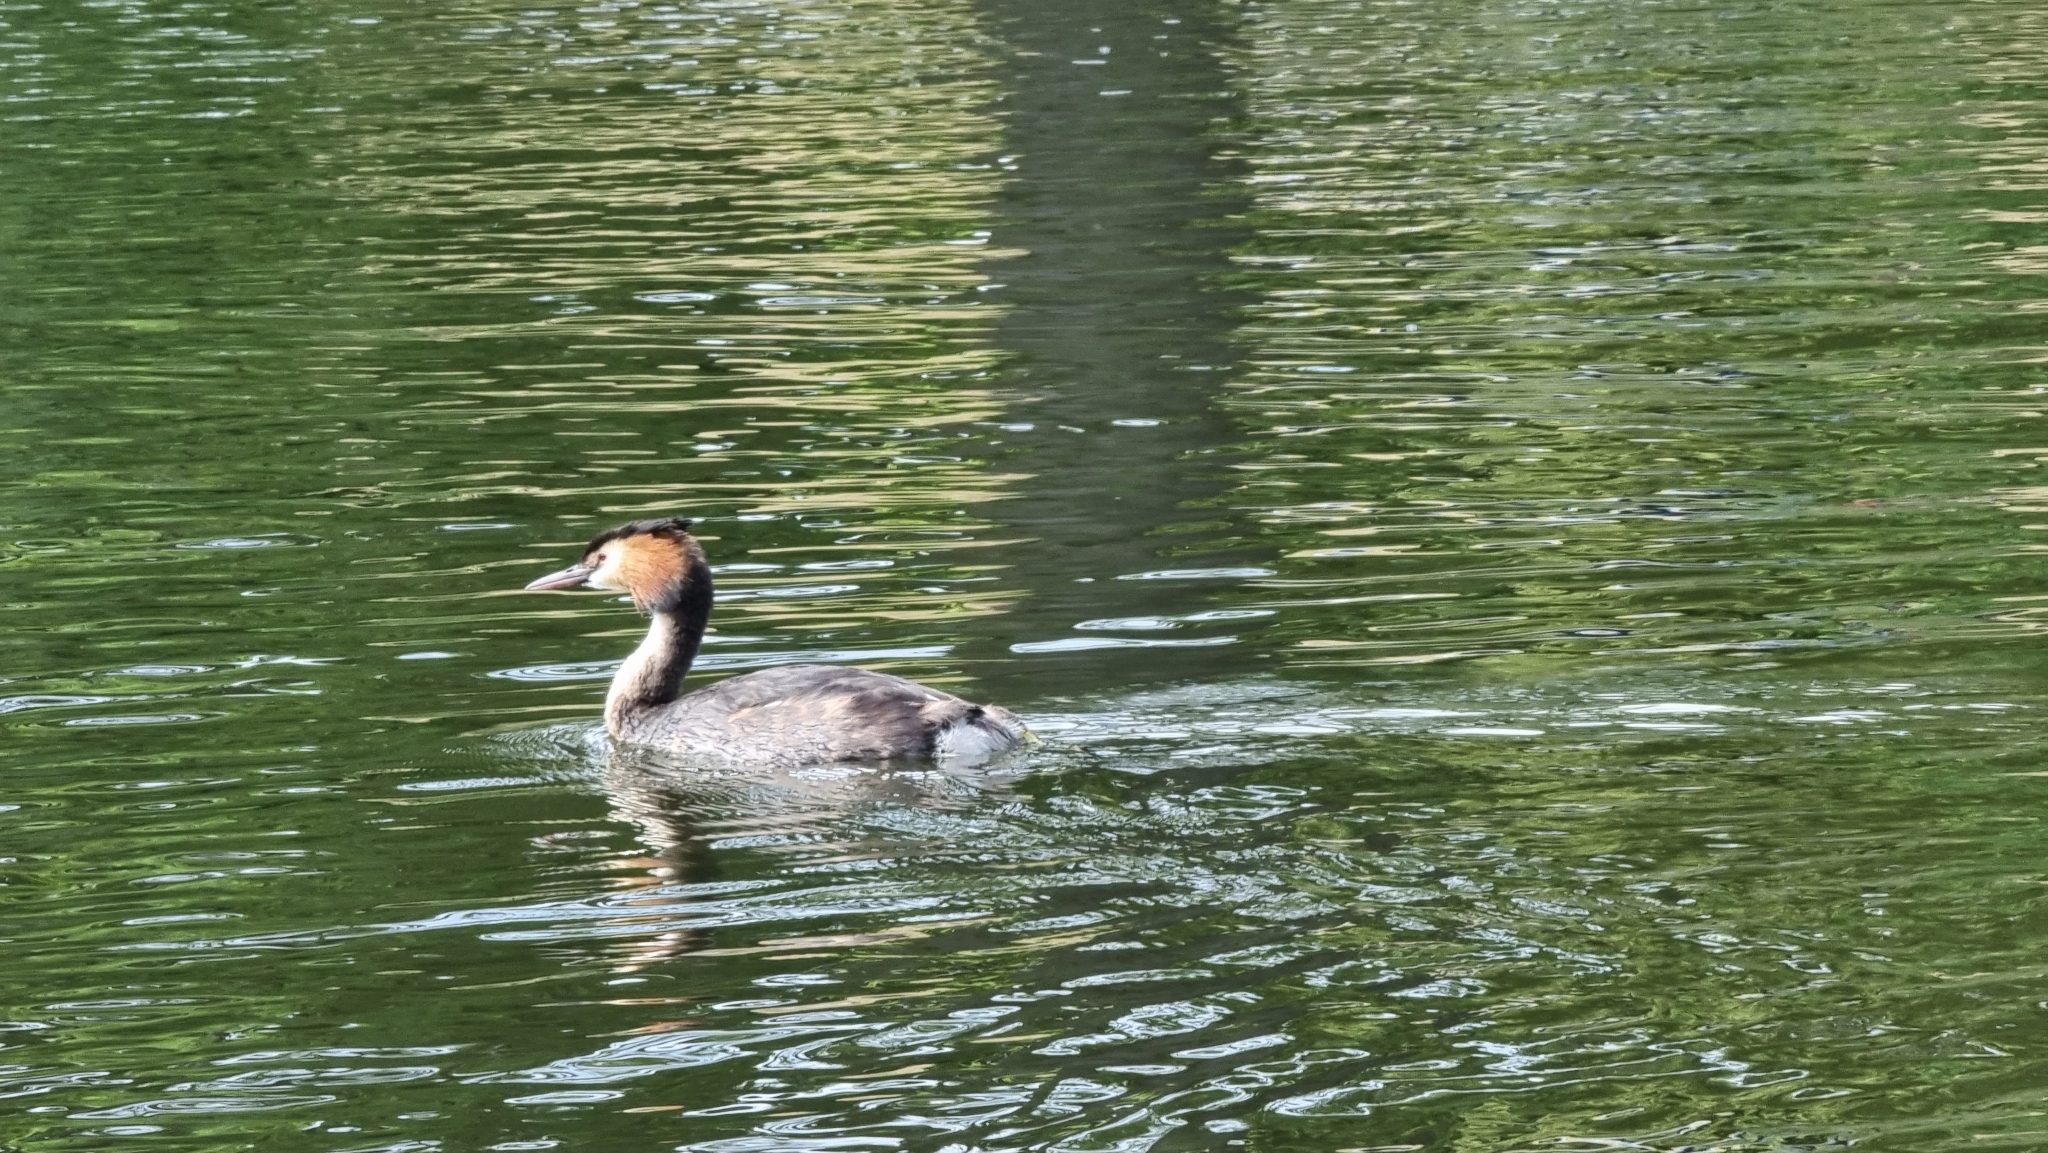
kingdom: Animalia
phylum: Chordata
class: Aves
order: Podicipediformes
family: Podicipedidae
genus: Podiceps
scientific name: Podiceps cristatus
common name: Great crested grebe
